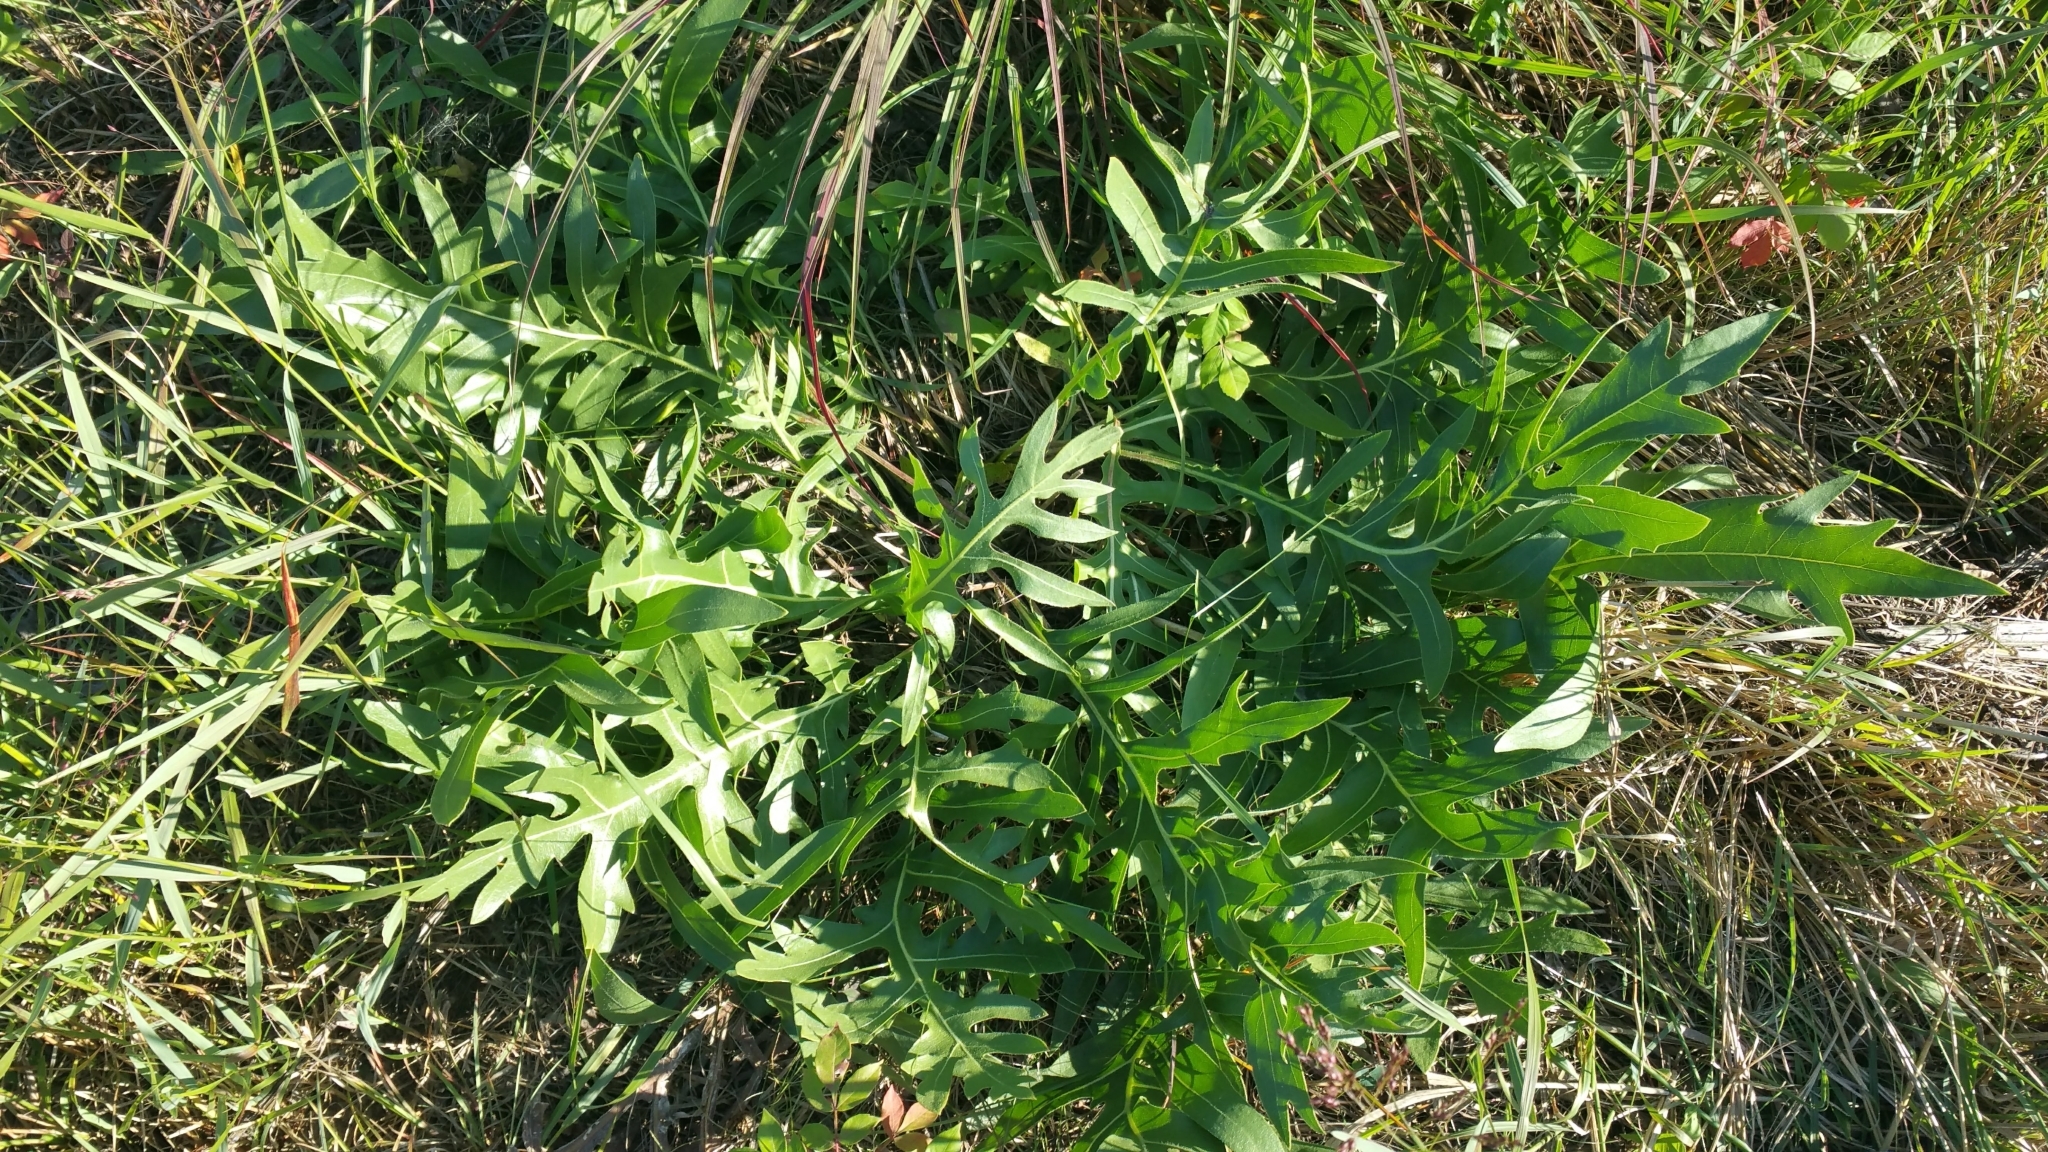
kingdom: Plantae
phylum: Tracheophyta
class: Magnoliopsida
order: Asterales
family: Asteraceae
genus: Silphium
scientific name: Silphium laciniatum
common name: Polarplant
